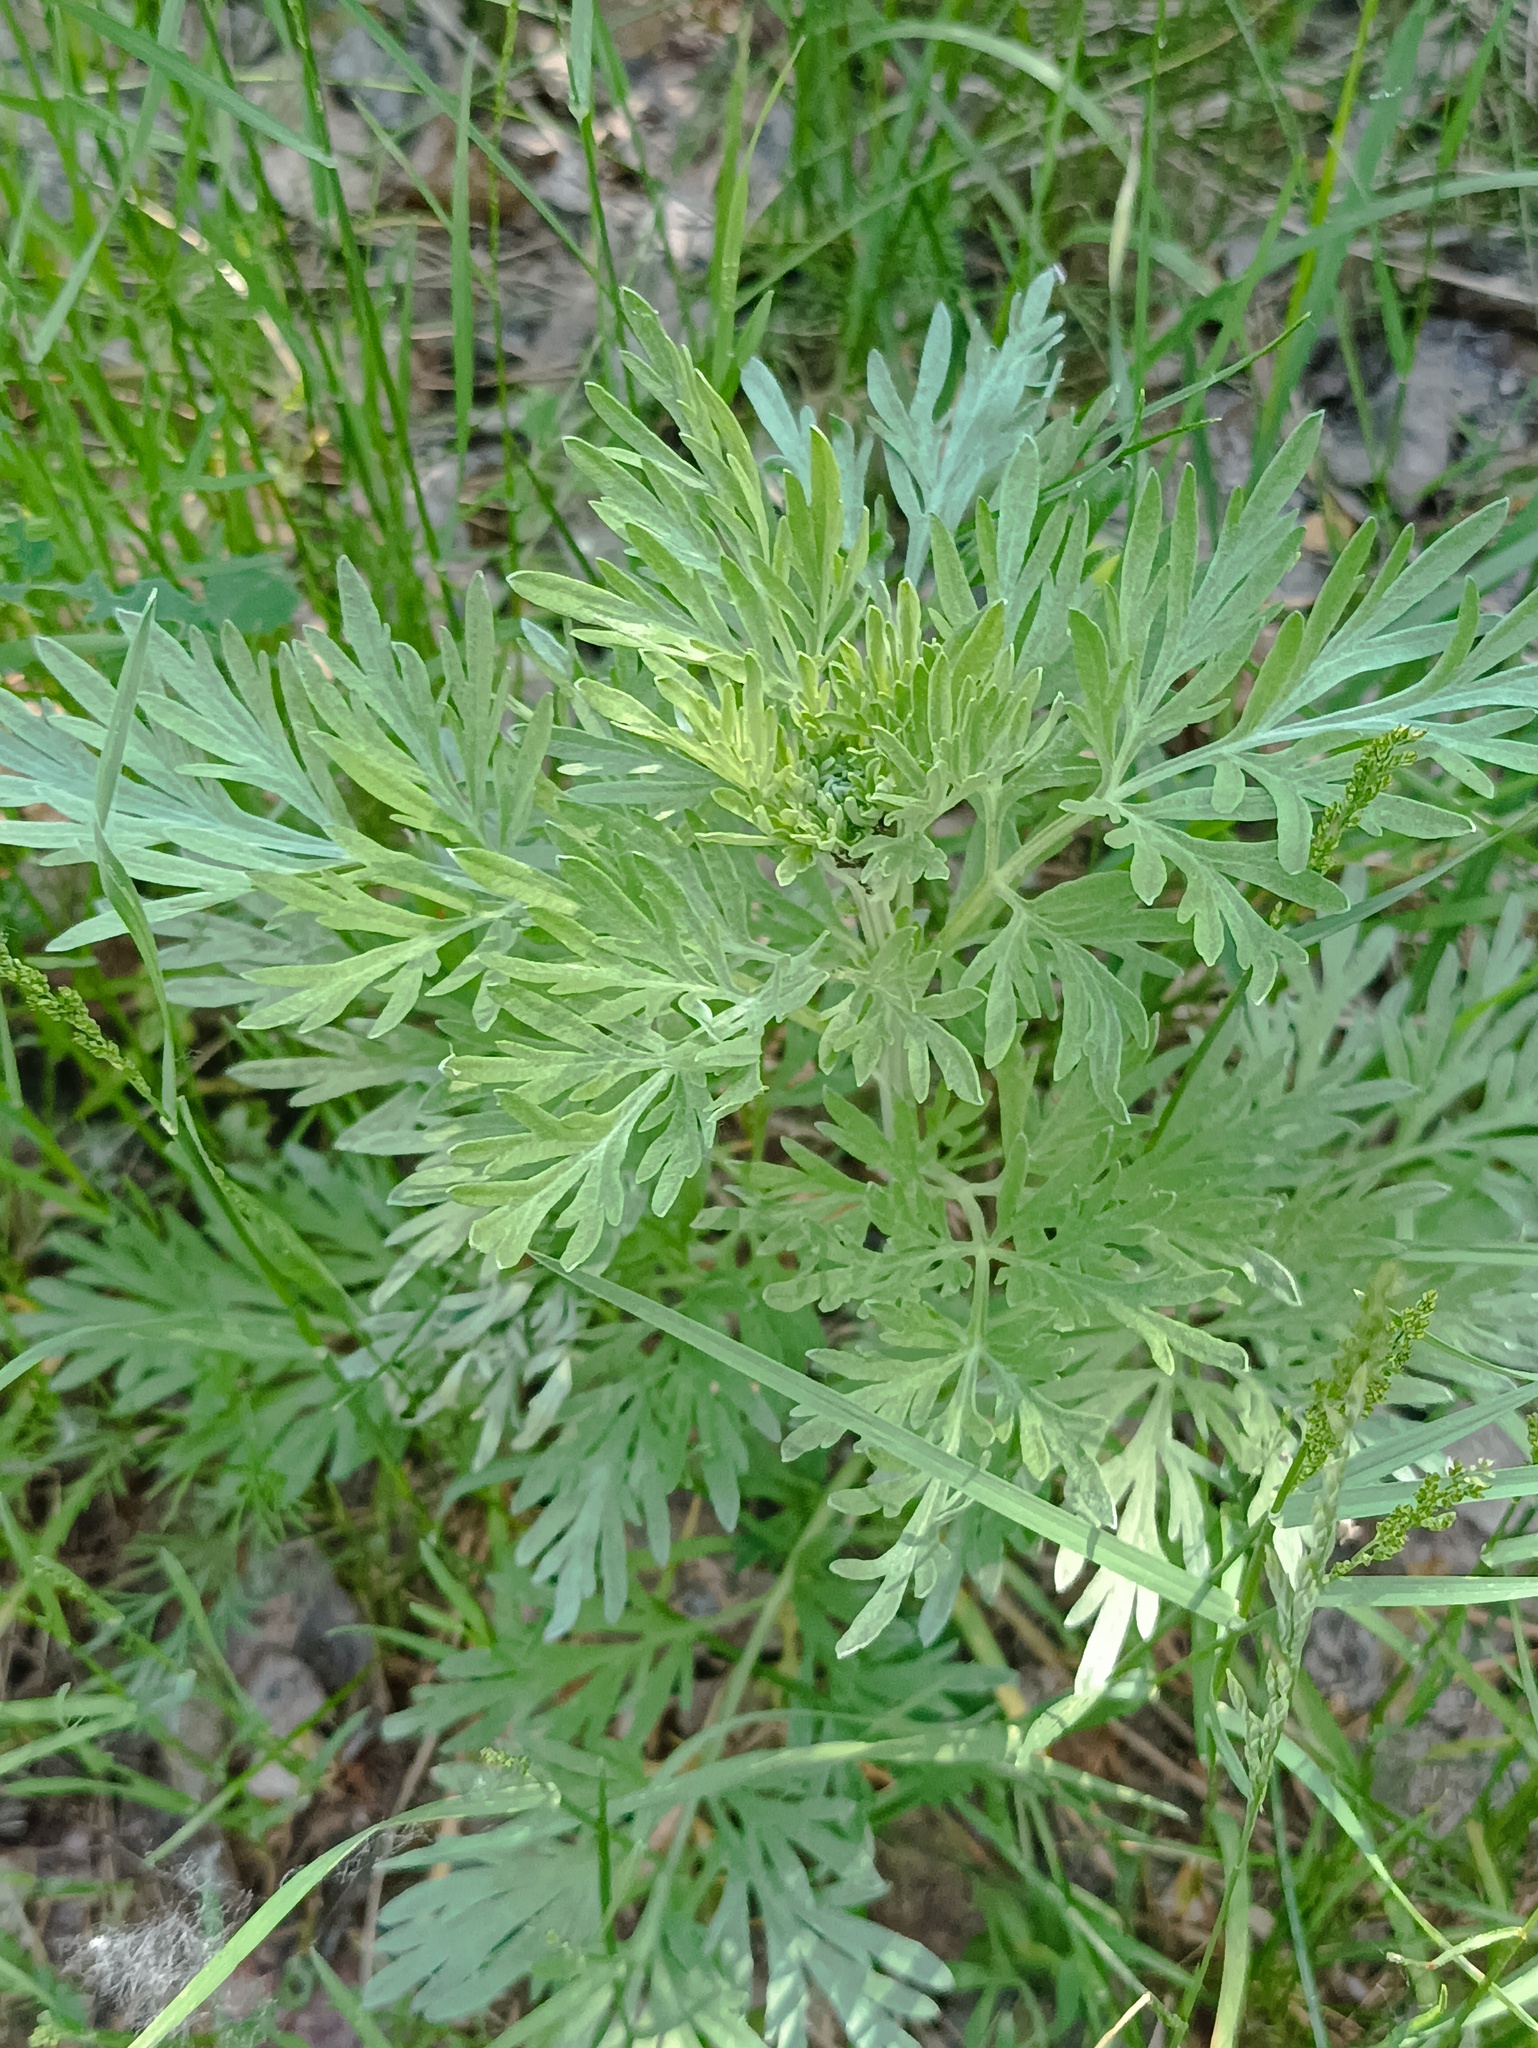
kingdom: Plantae
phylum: Tracheophyta
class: Magnoliopsida
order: Asterales
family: Asteraceae
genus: Artemisia
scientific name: Artemisia absinthium
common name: Wormwood
